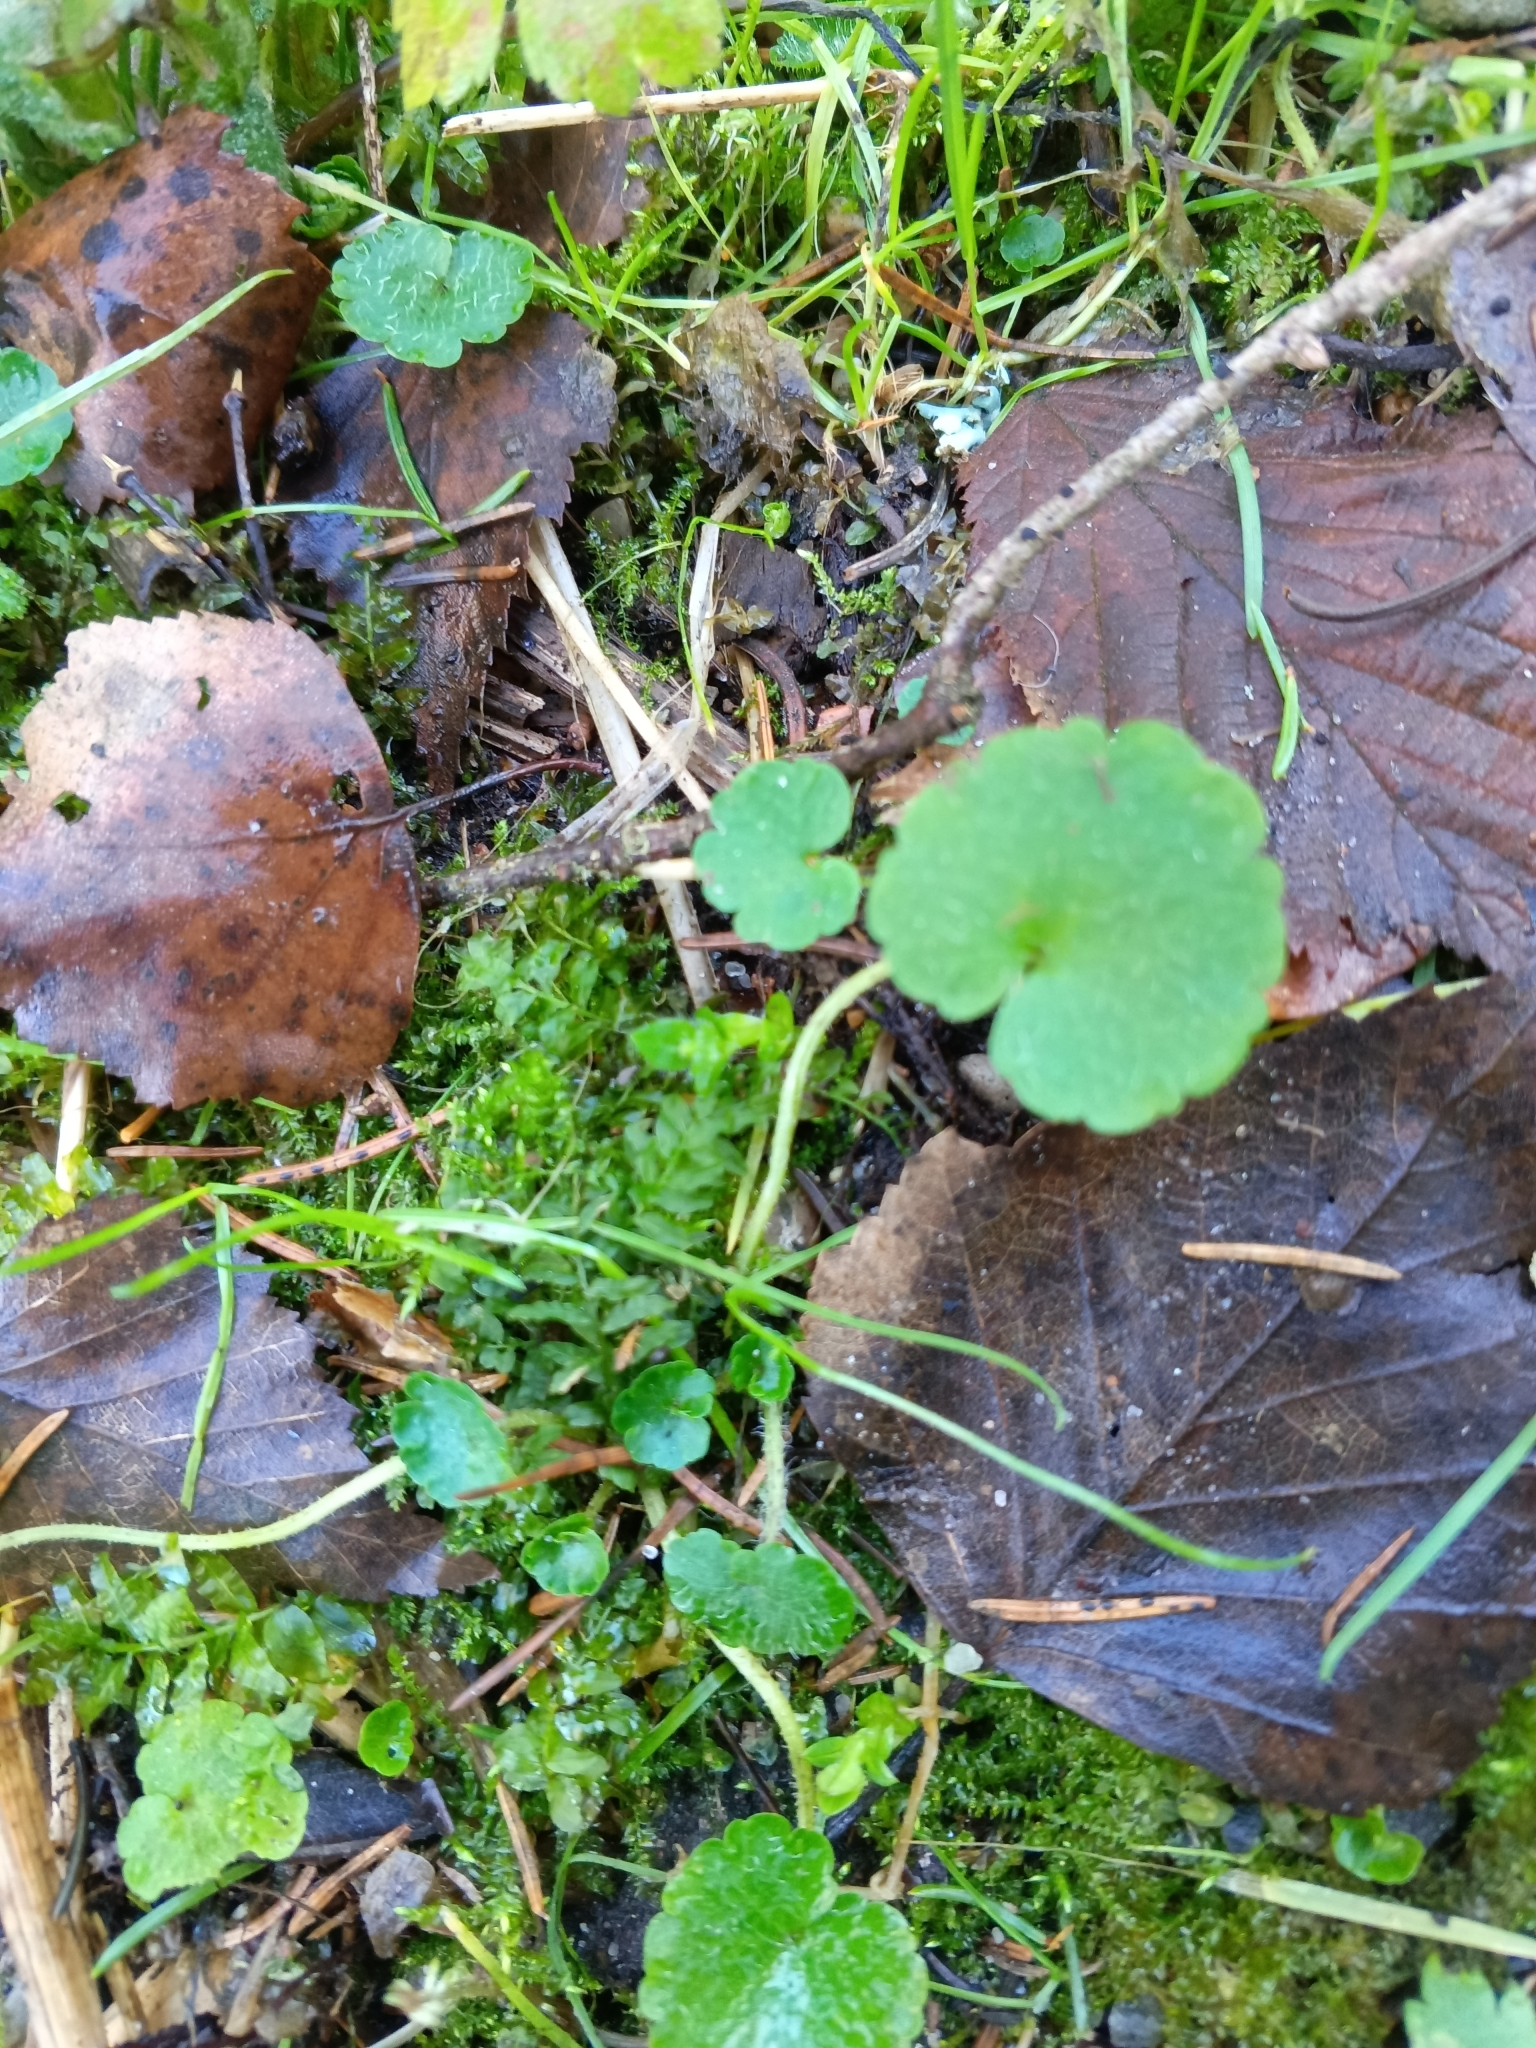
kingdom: Plantae
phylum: Tracheophyta
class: Magnoliopsida
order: Saxifragales
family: Saxifragaceae
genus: Chrysosplenium
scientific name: Chrysosplenium alternifolium
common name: Alternate-leaved golden-saxifrage
